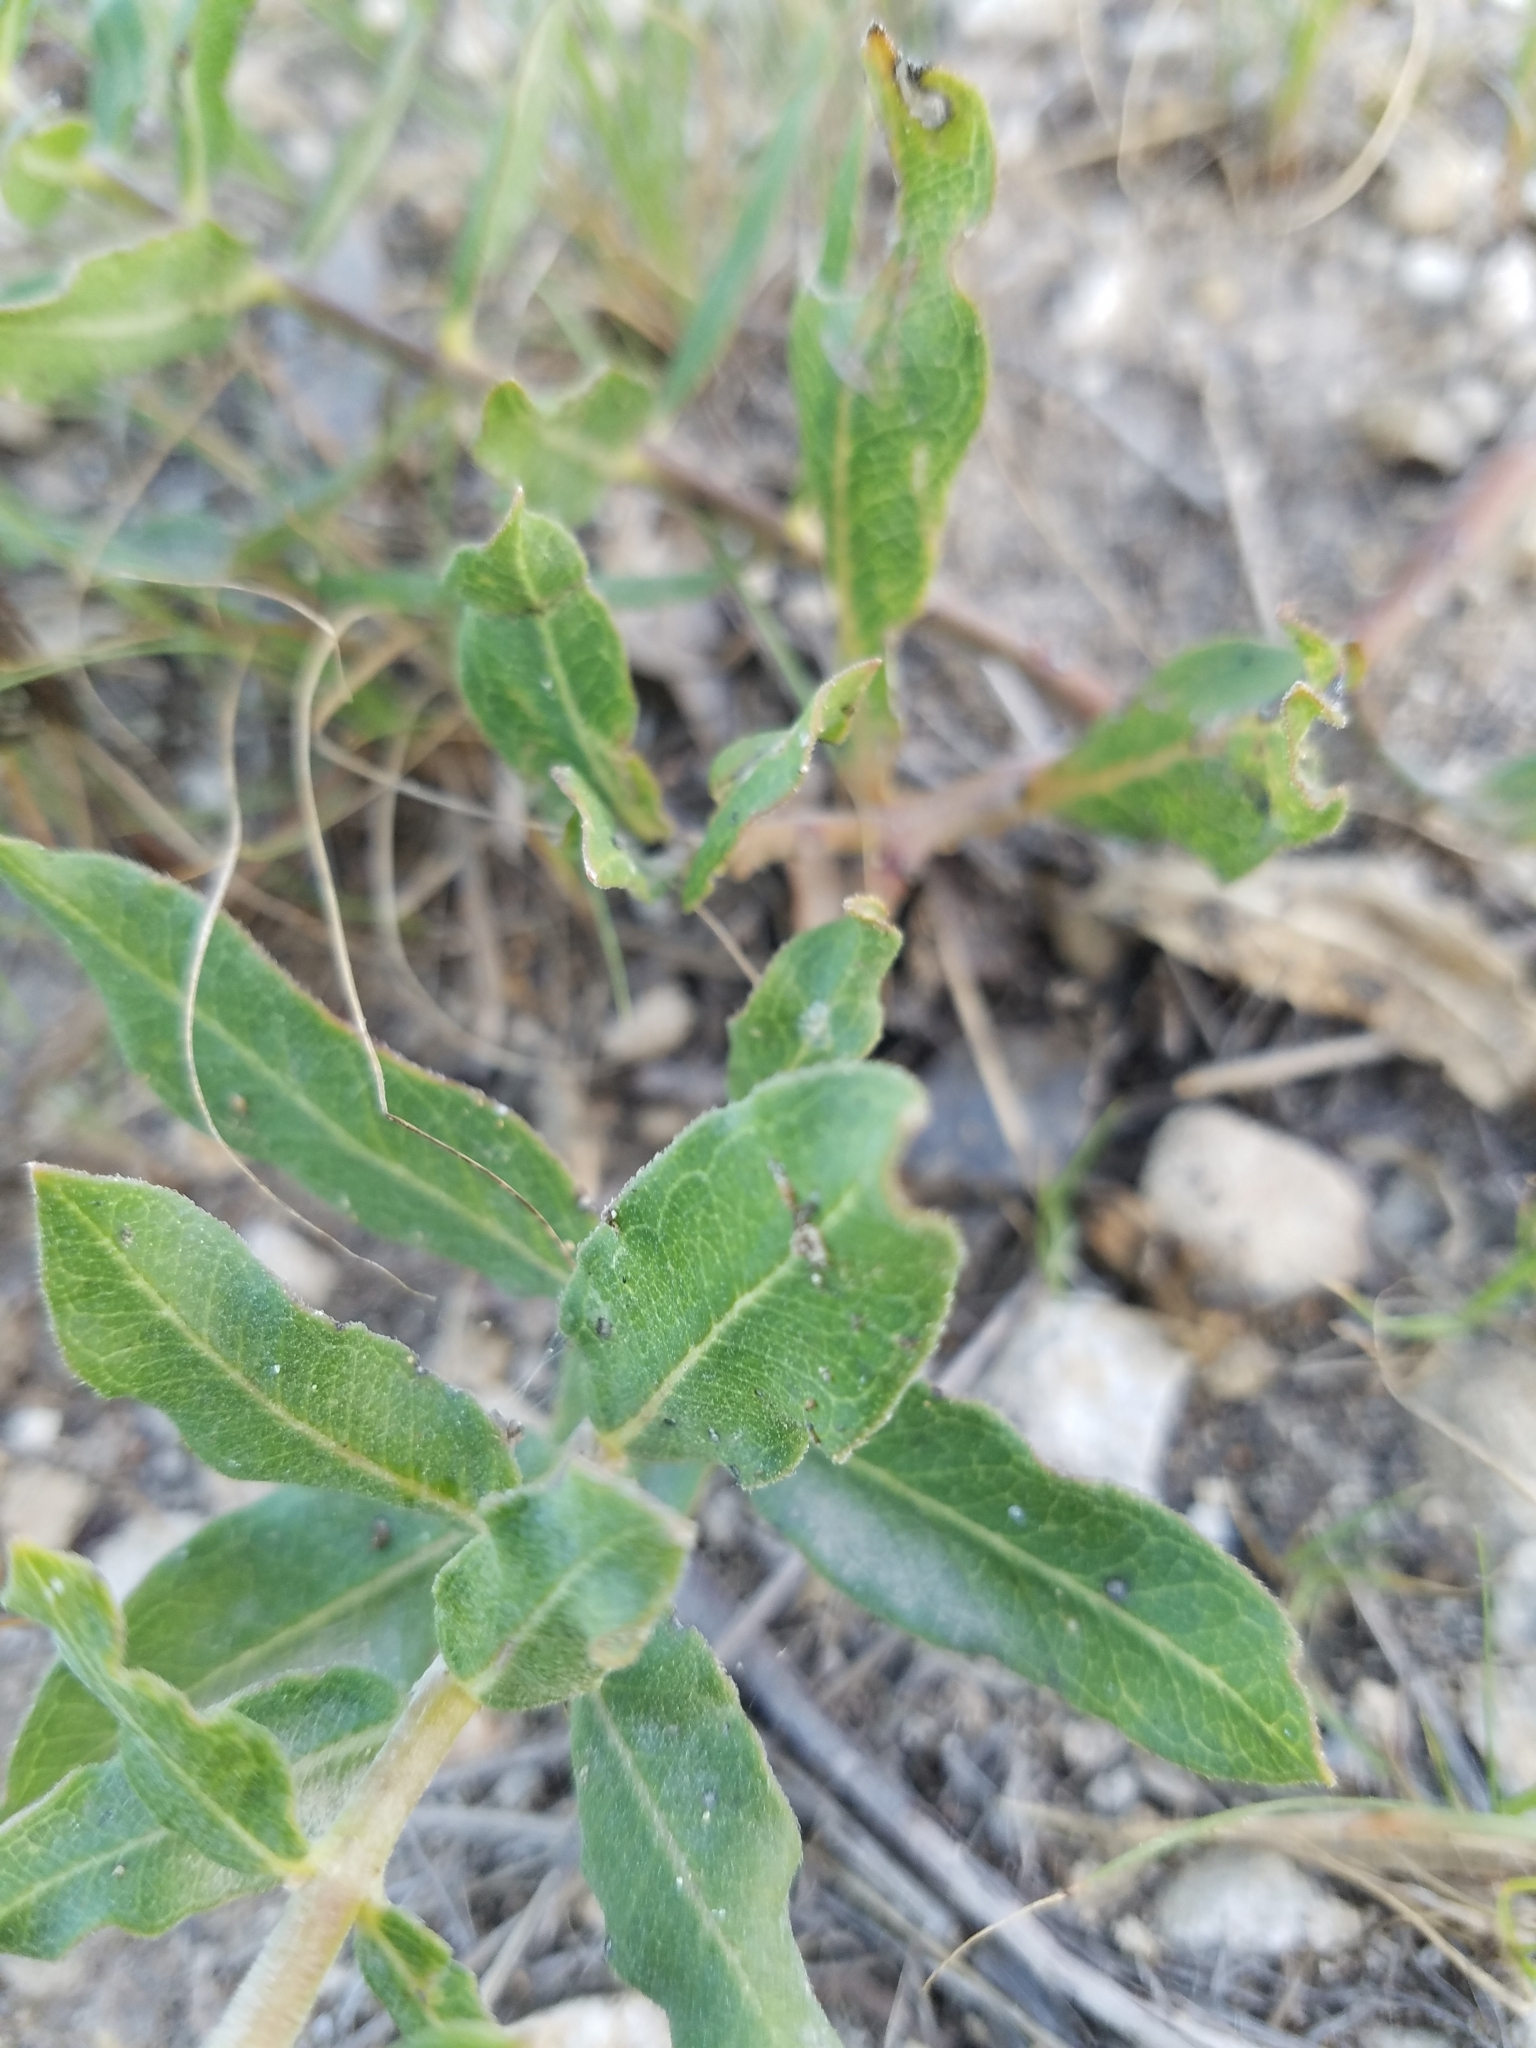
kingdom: Plantae
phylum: Tracheophyta
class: Magnoliopsida
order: Gentianales
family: Apocynaceae
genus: Asclepias
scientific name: Asclepias viridiflora
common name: Green comet milkweed
